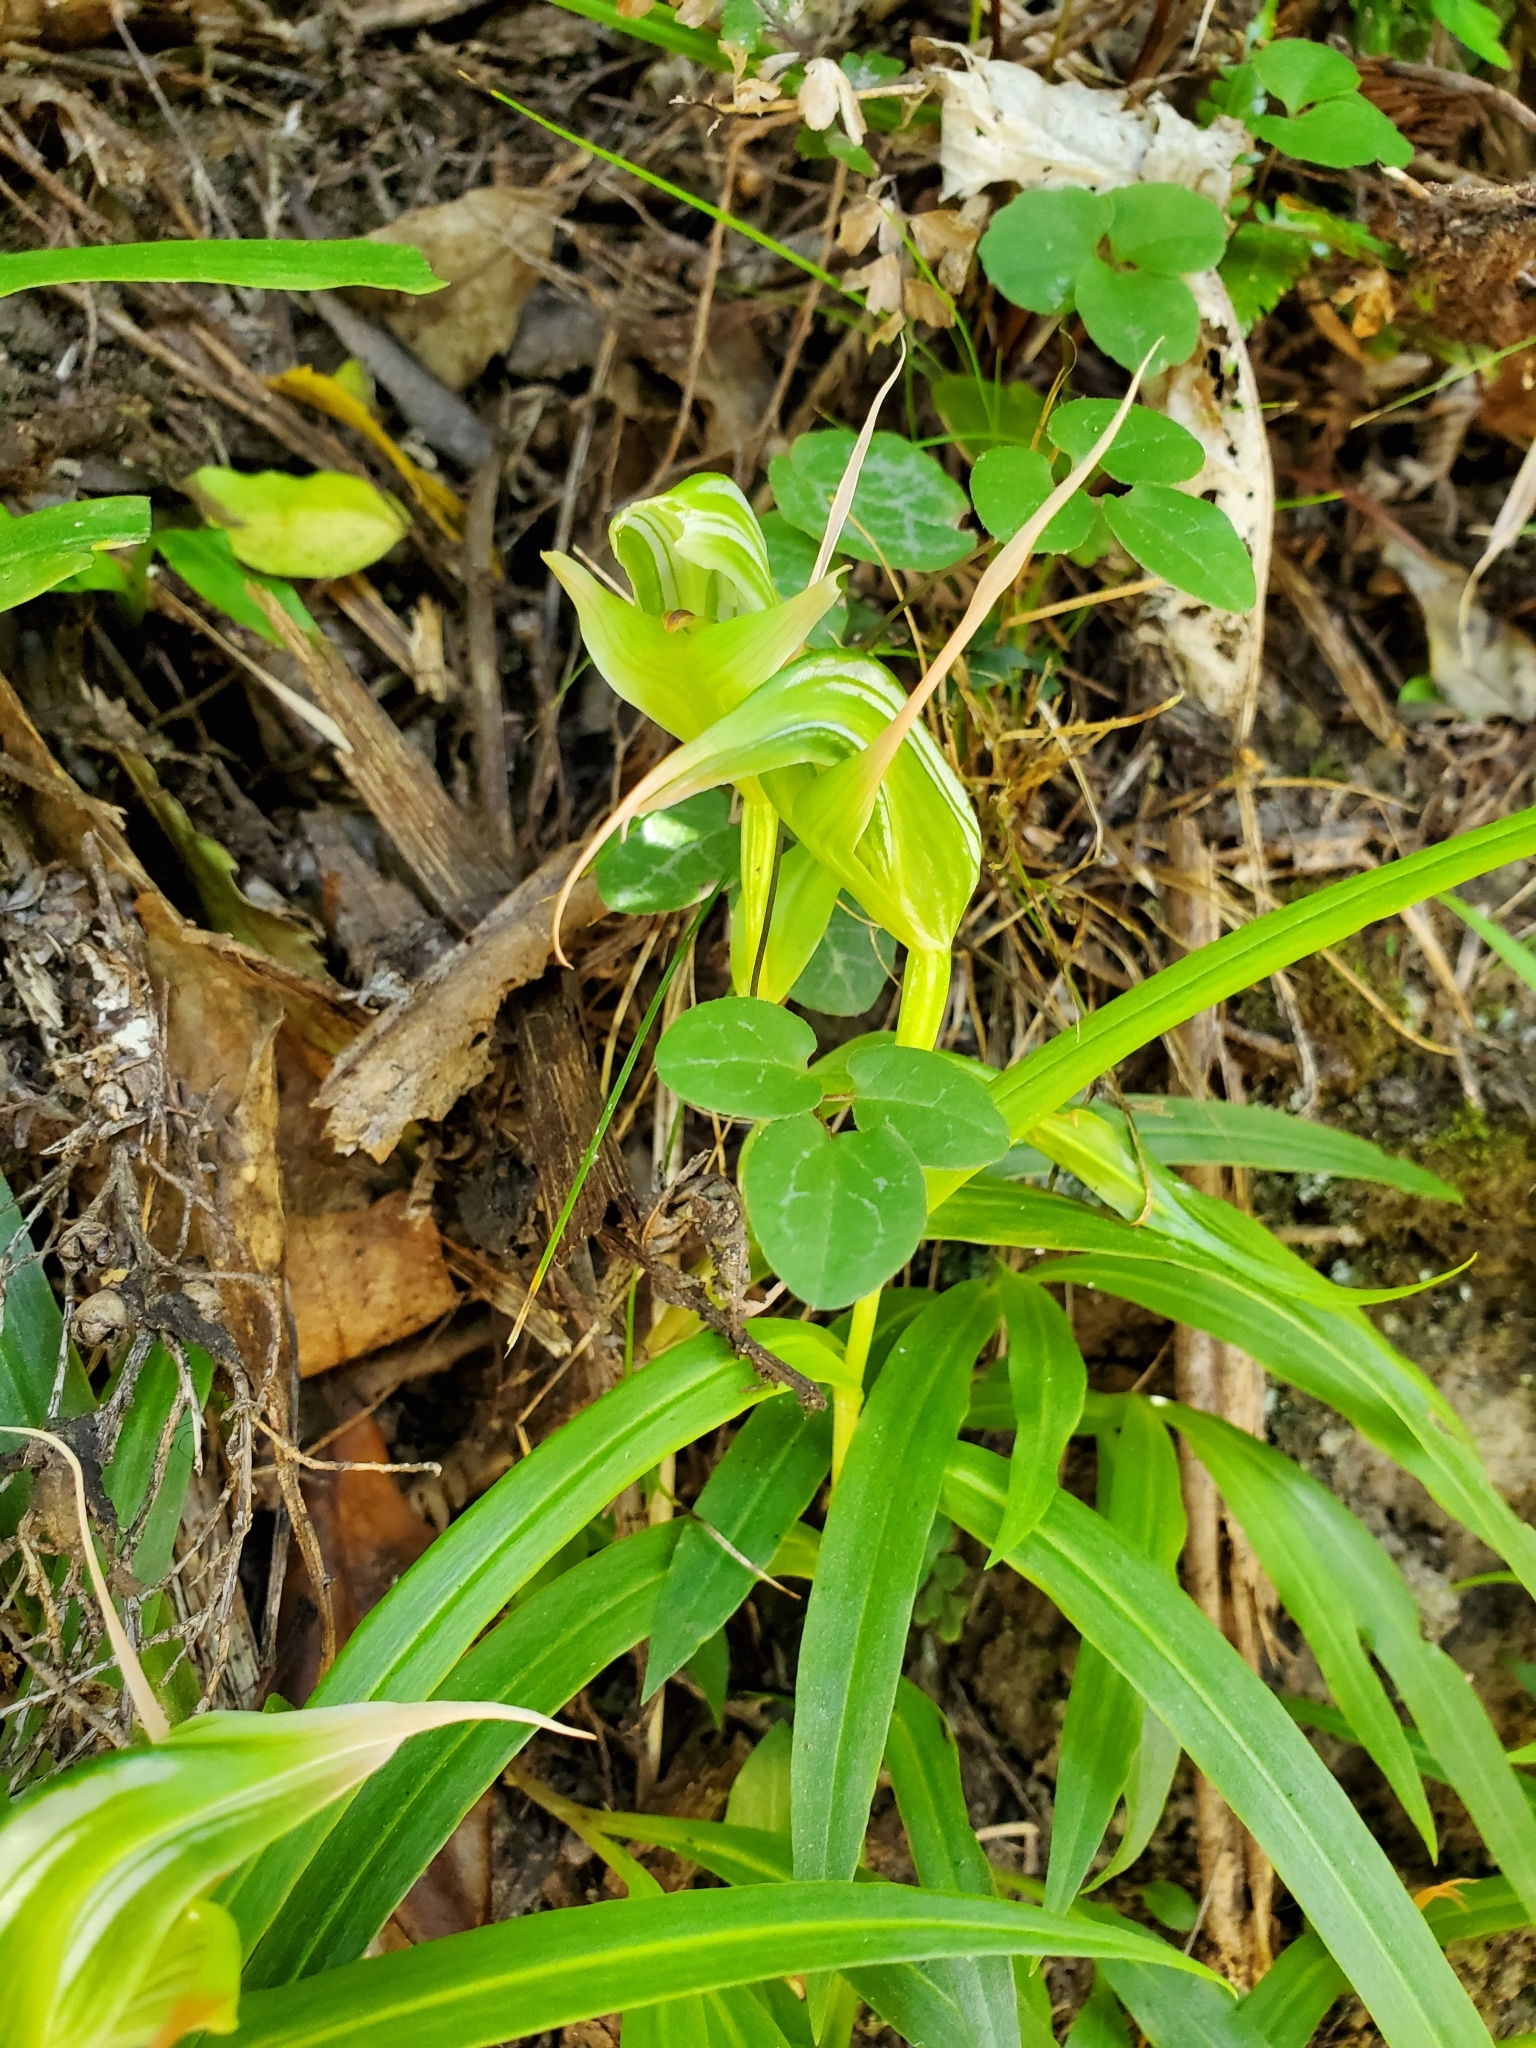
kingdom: Plantae
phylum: Tracheophyta
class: Liliopsida
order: Asparagales
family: Orchidaceae
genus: Pterostylis
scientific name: Pterostylis banksii
